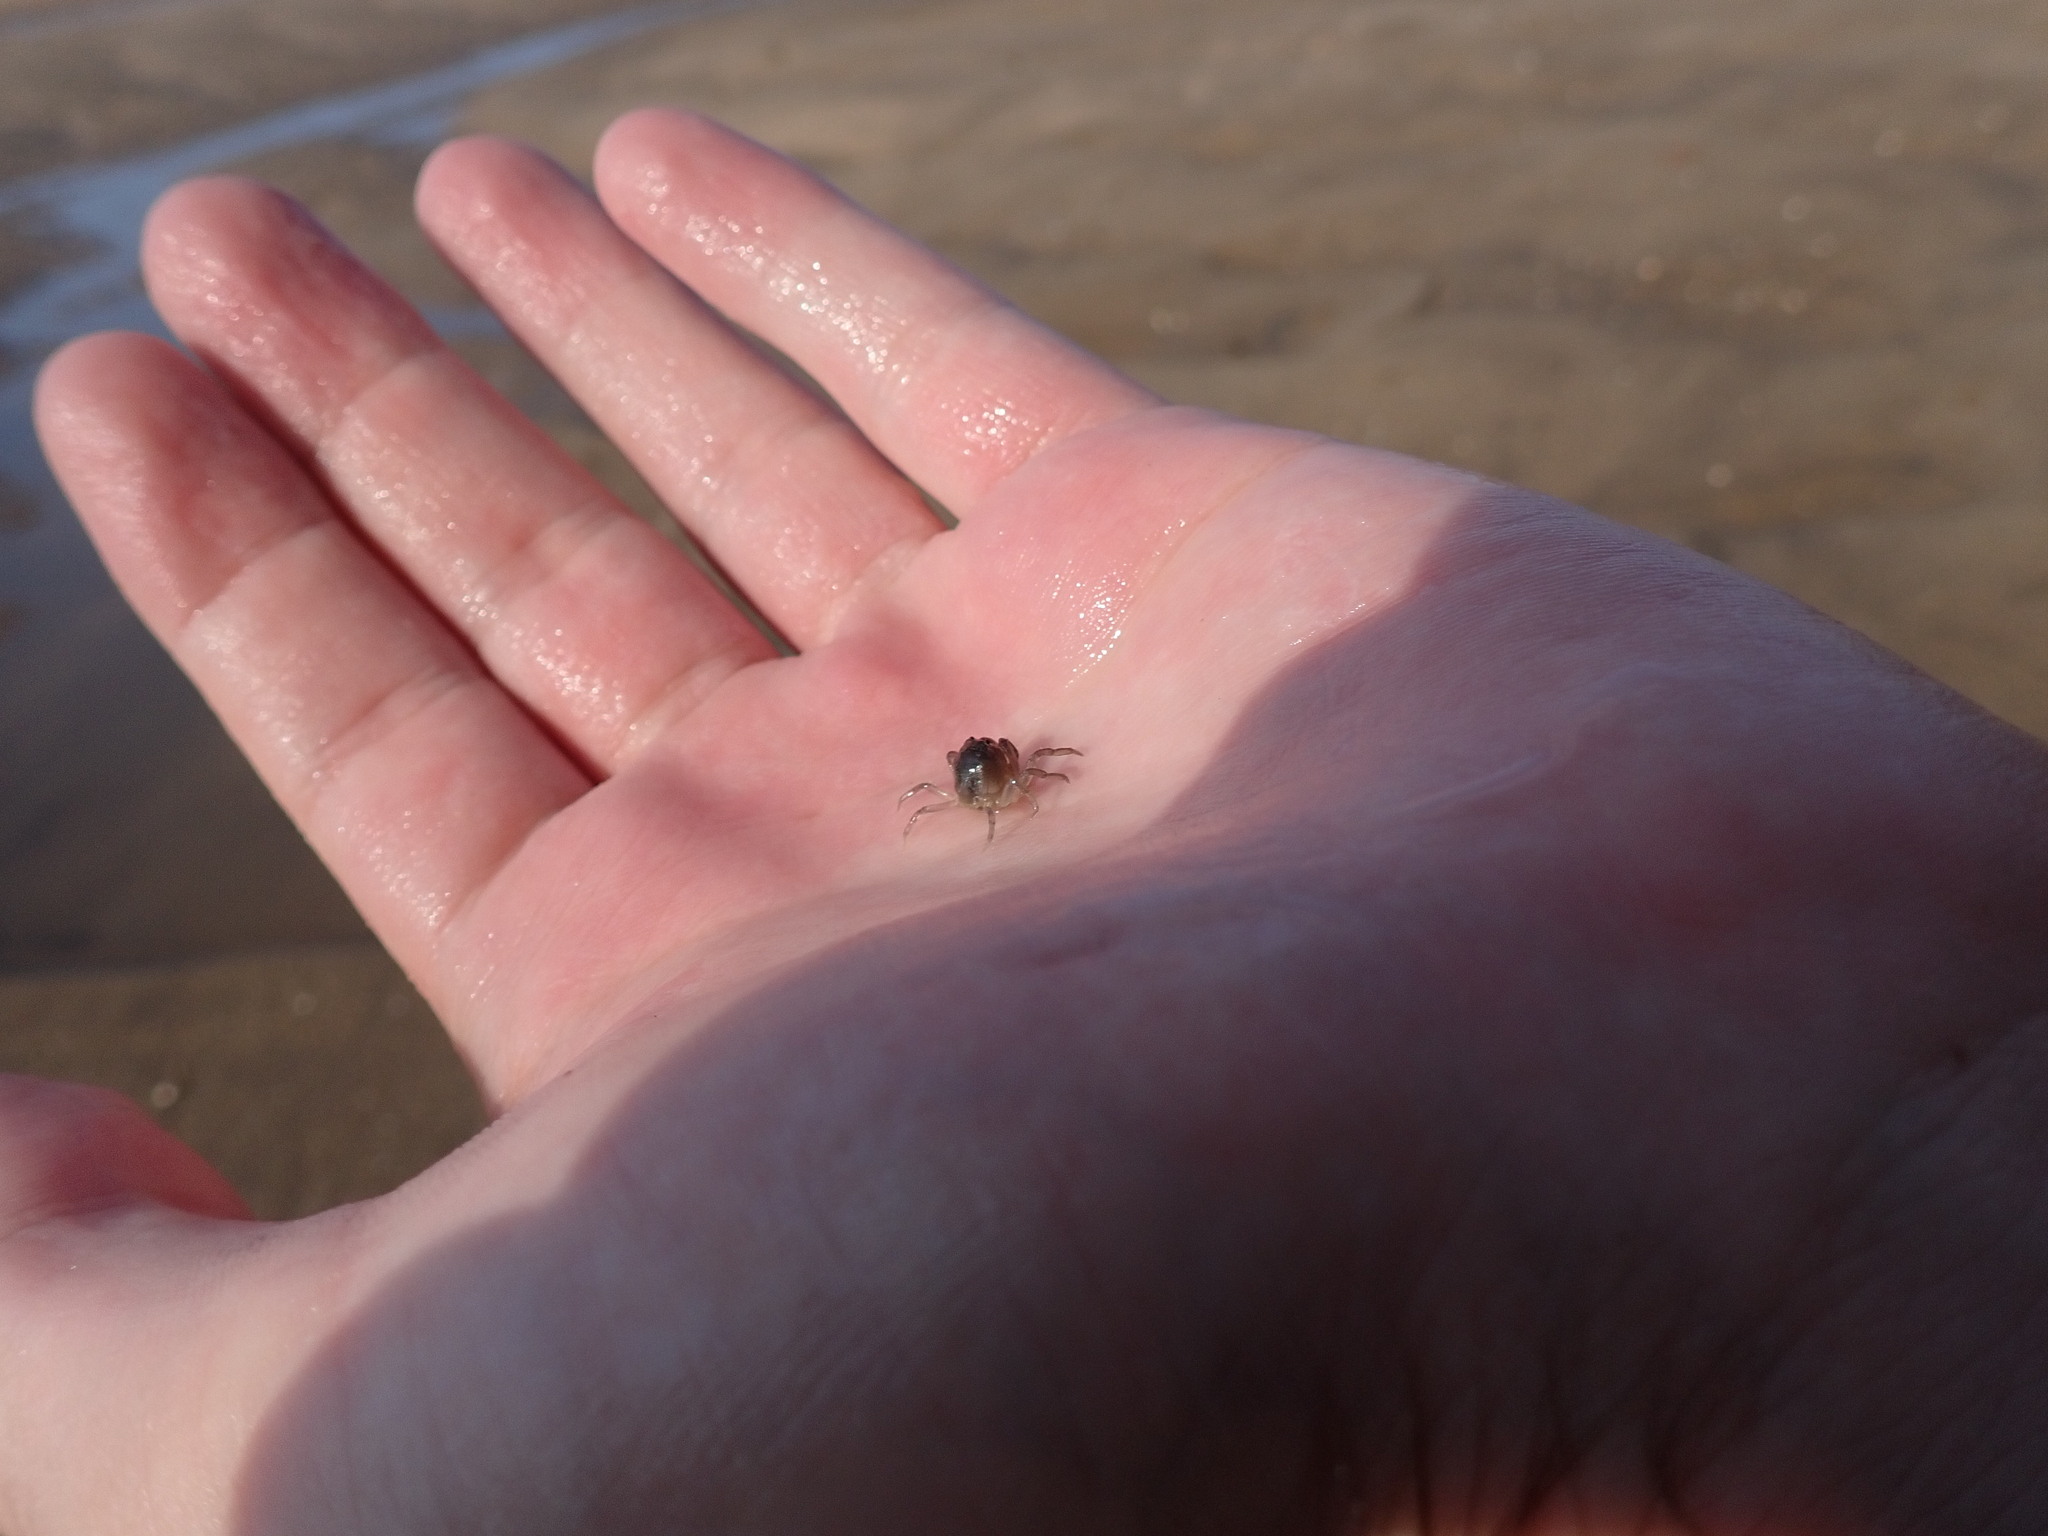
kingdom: Animalia
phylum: Arthropoda
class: Malacostraca
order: Decapoda
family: Mictyridae
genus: Mictyris
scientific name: Mictyris livingstonei
